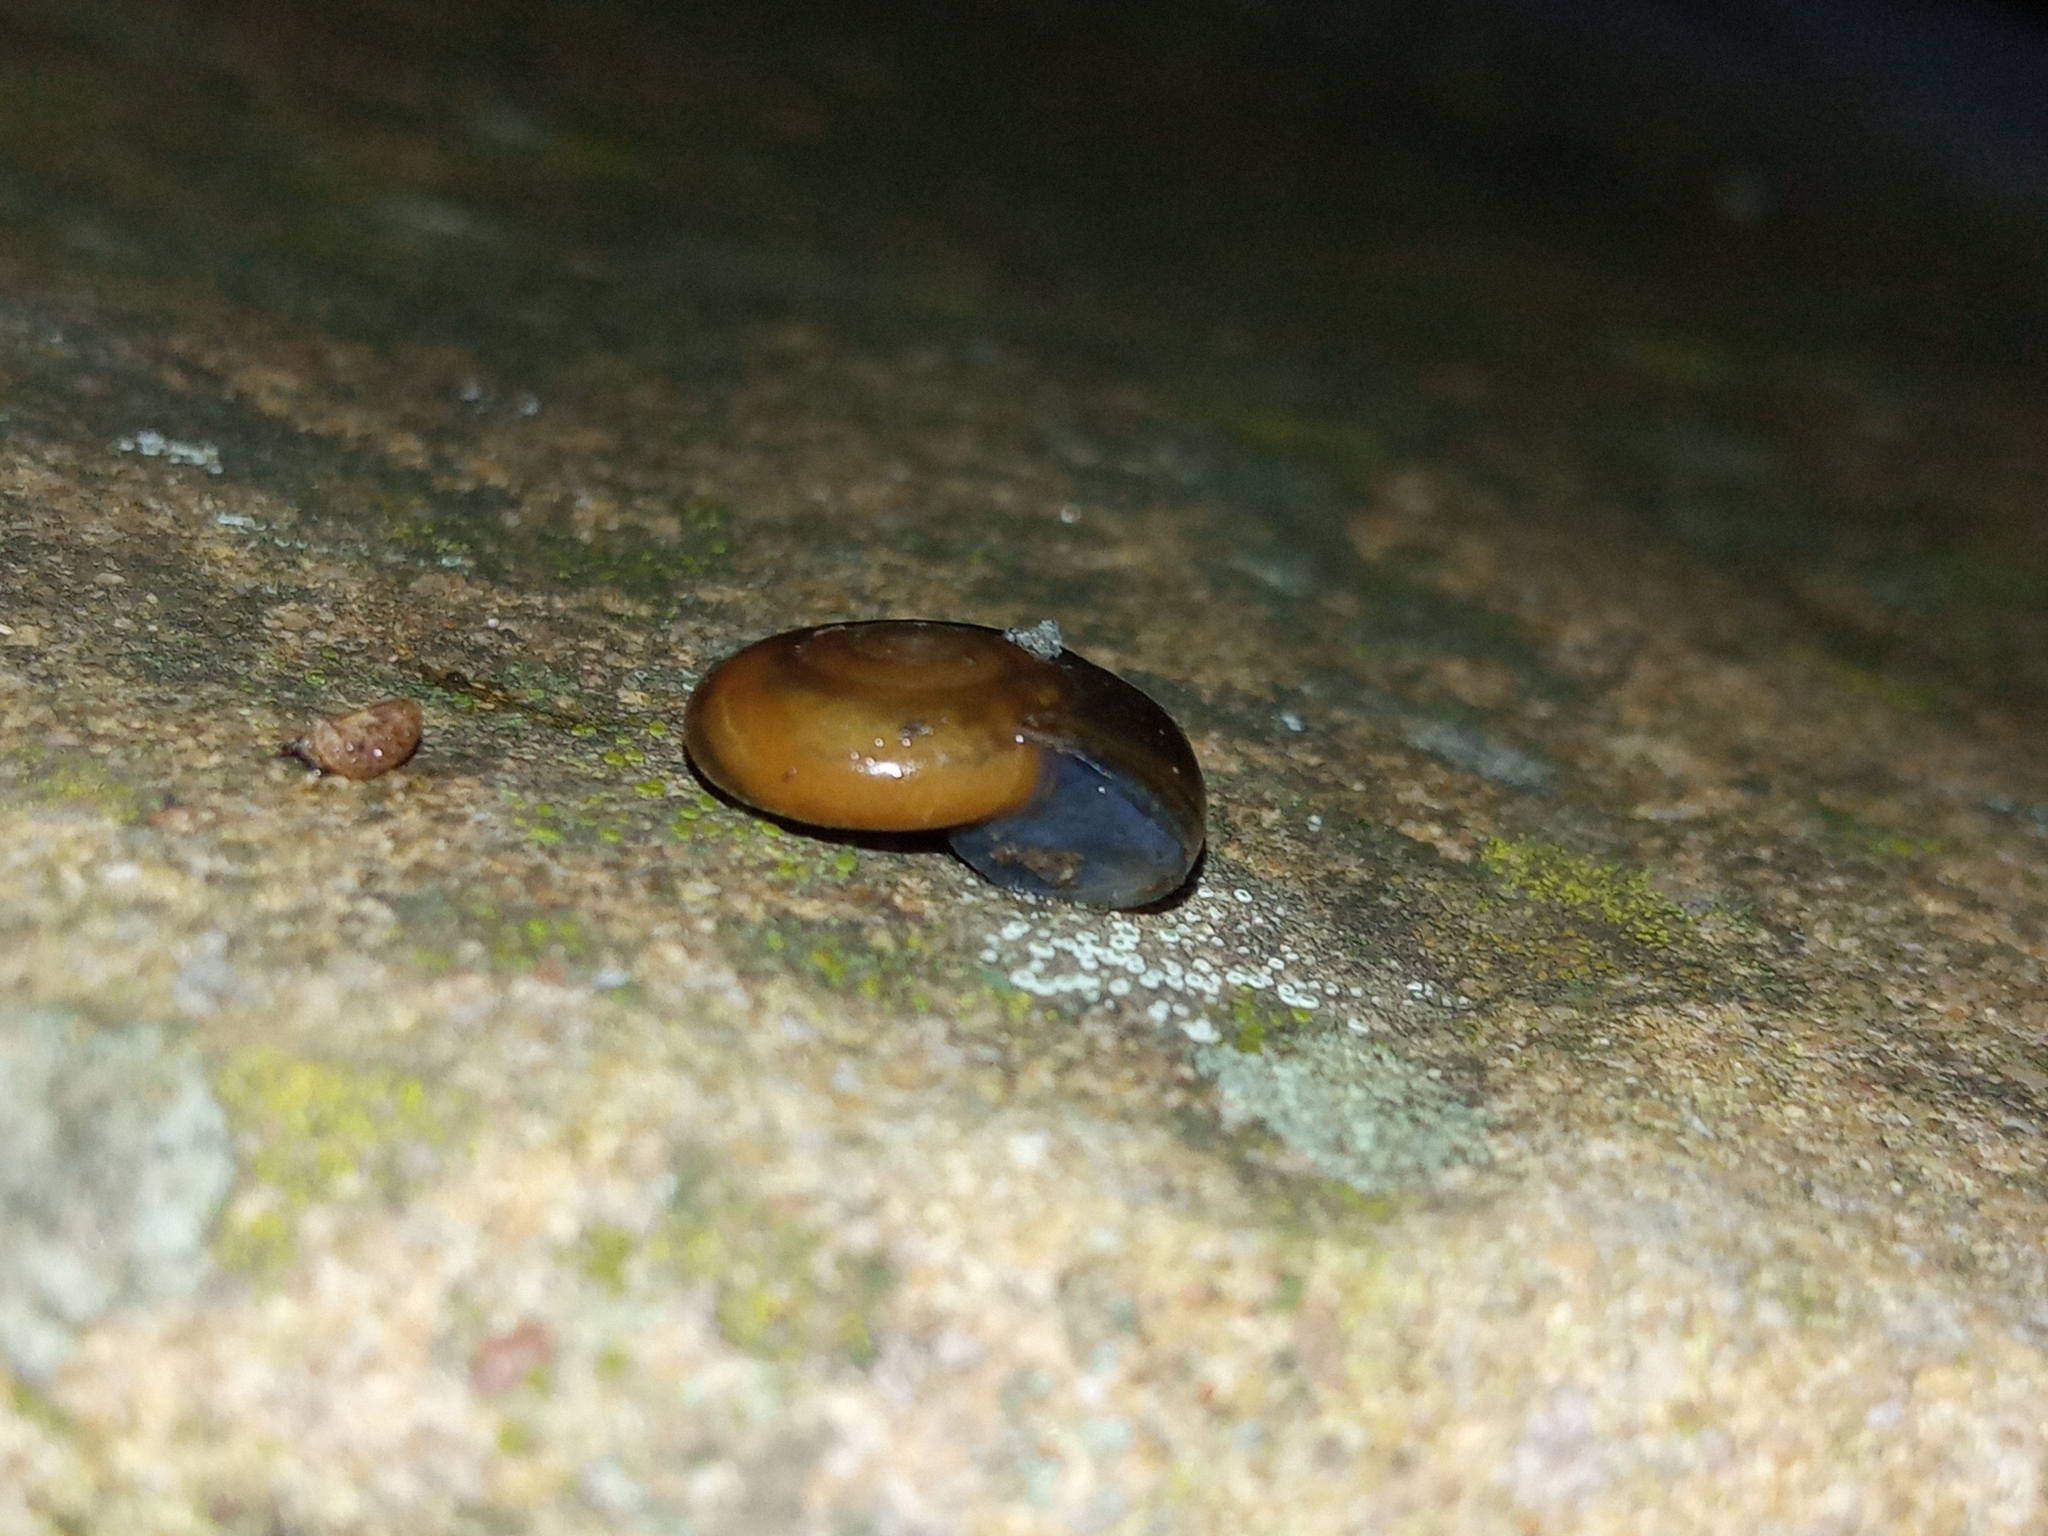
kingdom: Animalia
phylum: Mollusca
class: Gastropoda
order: Stylommatophora
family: Oxychilidae
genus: Oxychilus
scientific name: Oxychilus draparnaudi
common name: Draparnaud's glass snail
